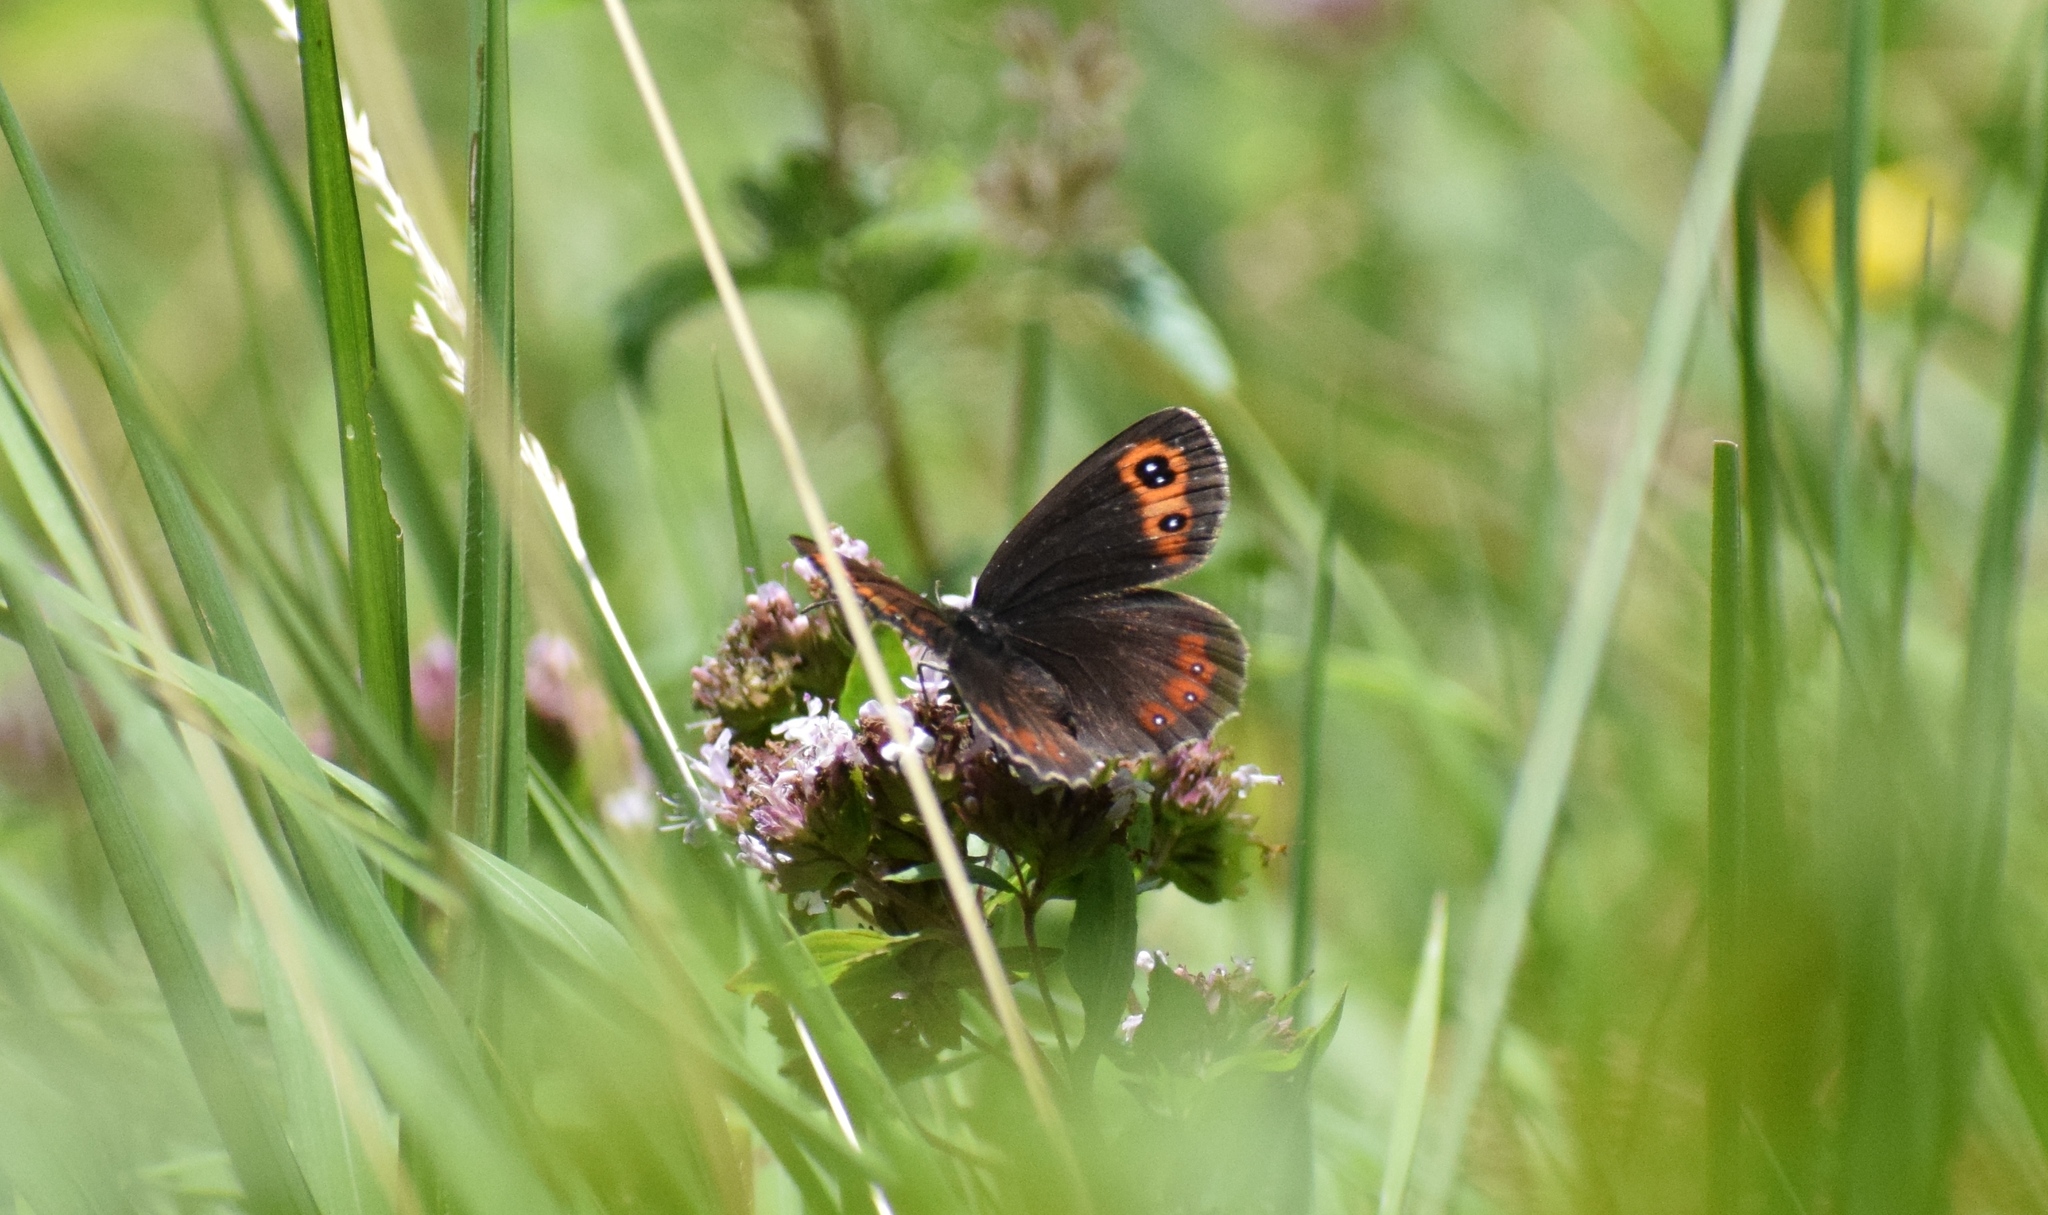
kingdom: Animalia
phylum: Arthropoda
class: Insecta
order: Lepidoptera
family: Nymphalidae
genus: Erebia
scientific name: Erebia aethiops
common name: Scotch argus
